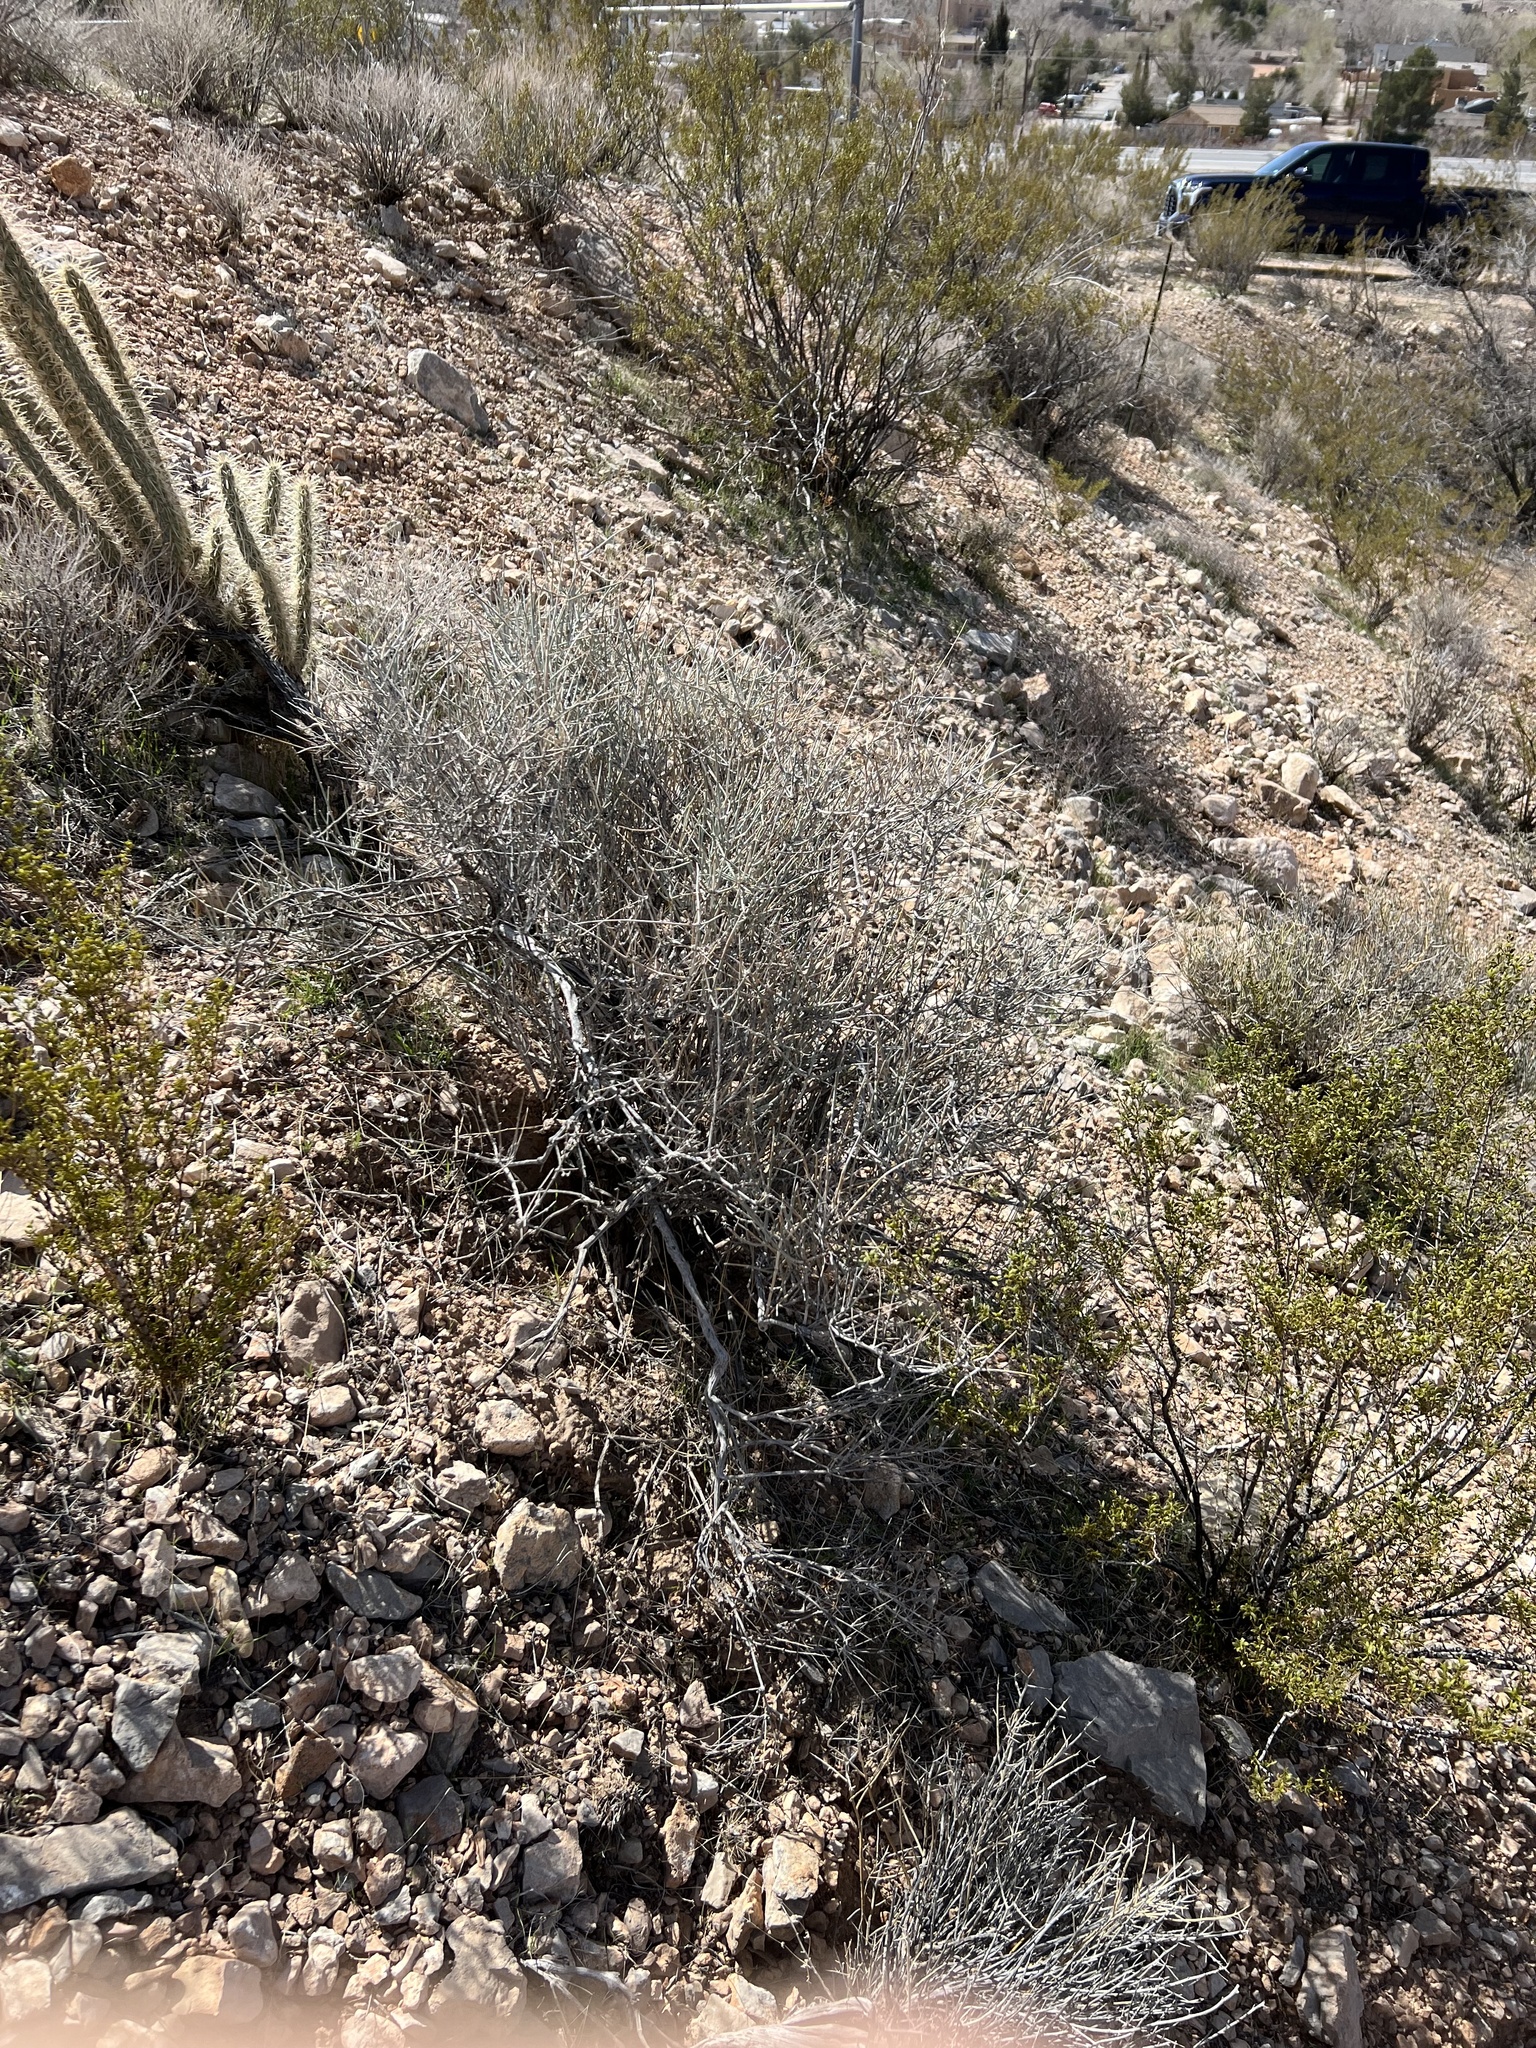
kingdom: Plantae
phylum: Tracheophyta
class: Gnetopsida
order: Ephedrales
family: Ephedraceae
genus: Ephedra
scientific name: Ephedra nevadensis
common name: Gray ephedra
